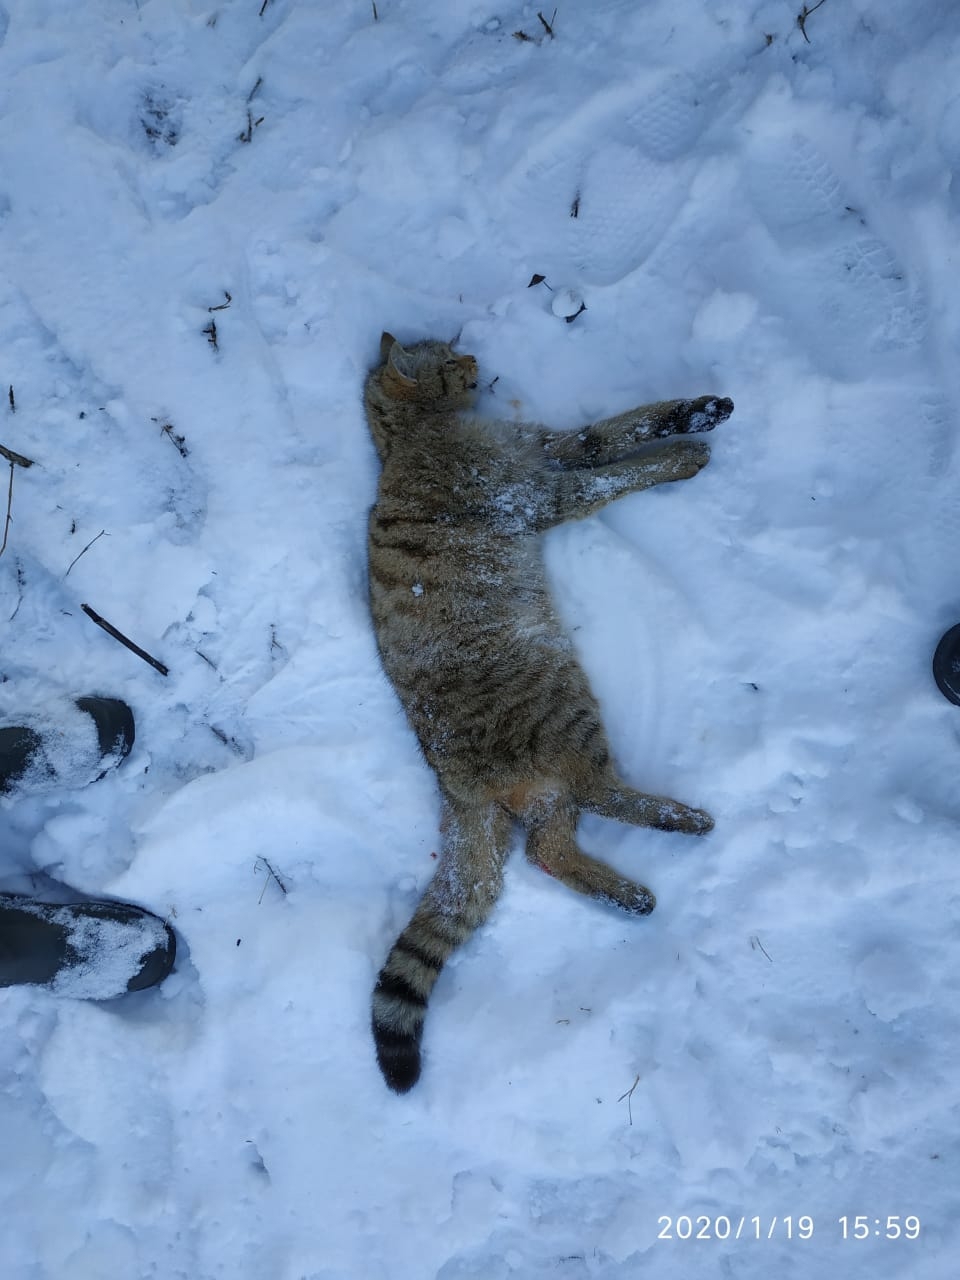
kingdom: Animalia
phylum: Chordata
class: Mammalia
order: Carnivora
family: Felidae
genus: Felis
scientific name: Felis silvestris
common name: Wildcat
